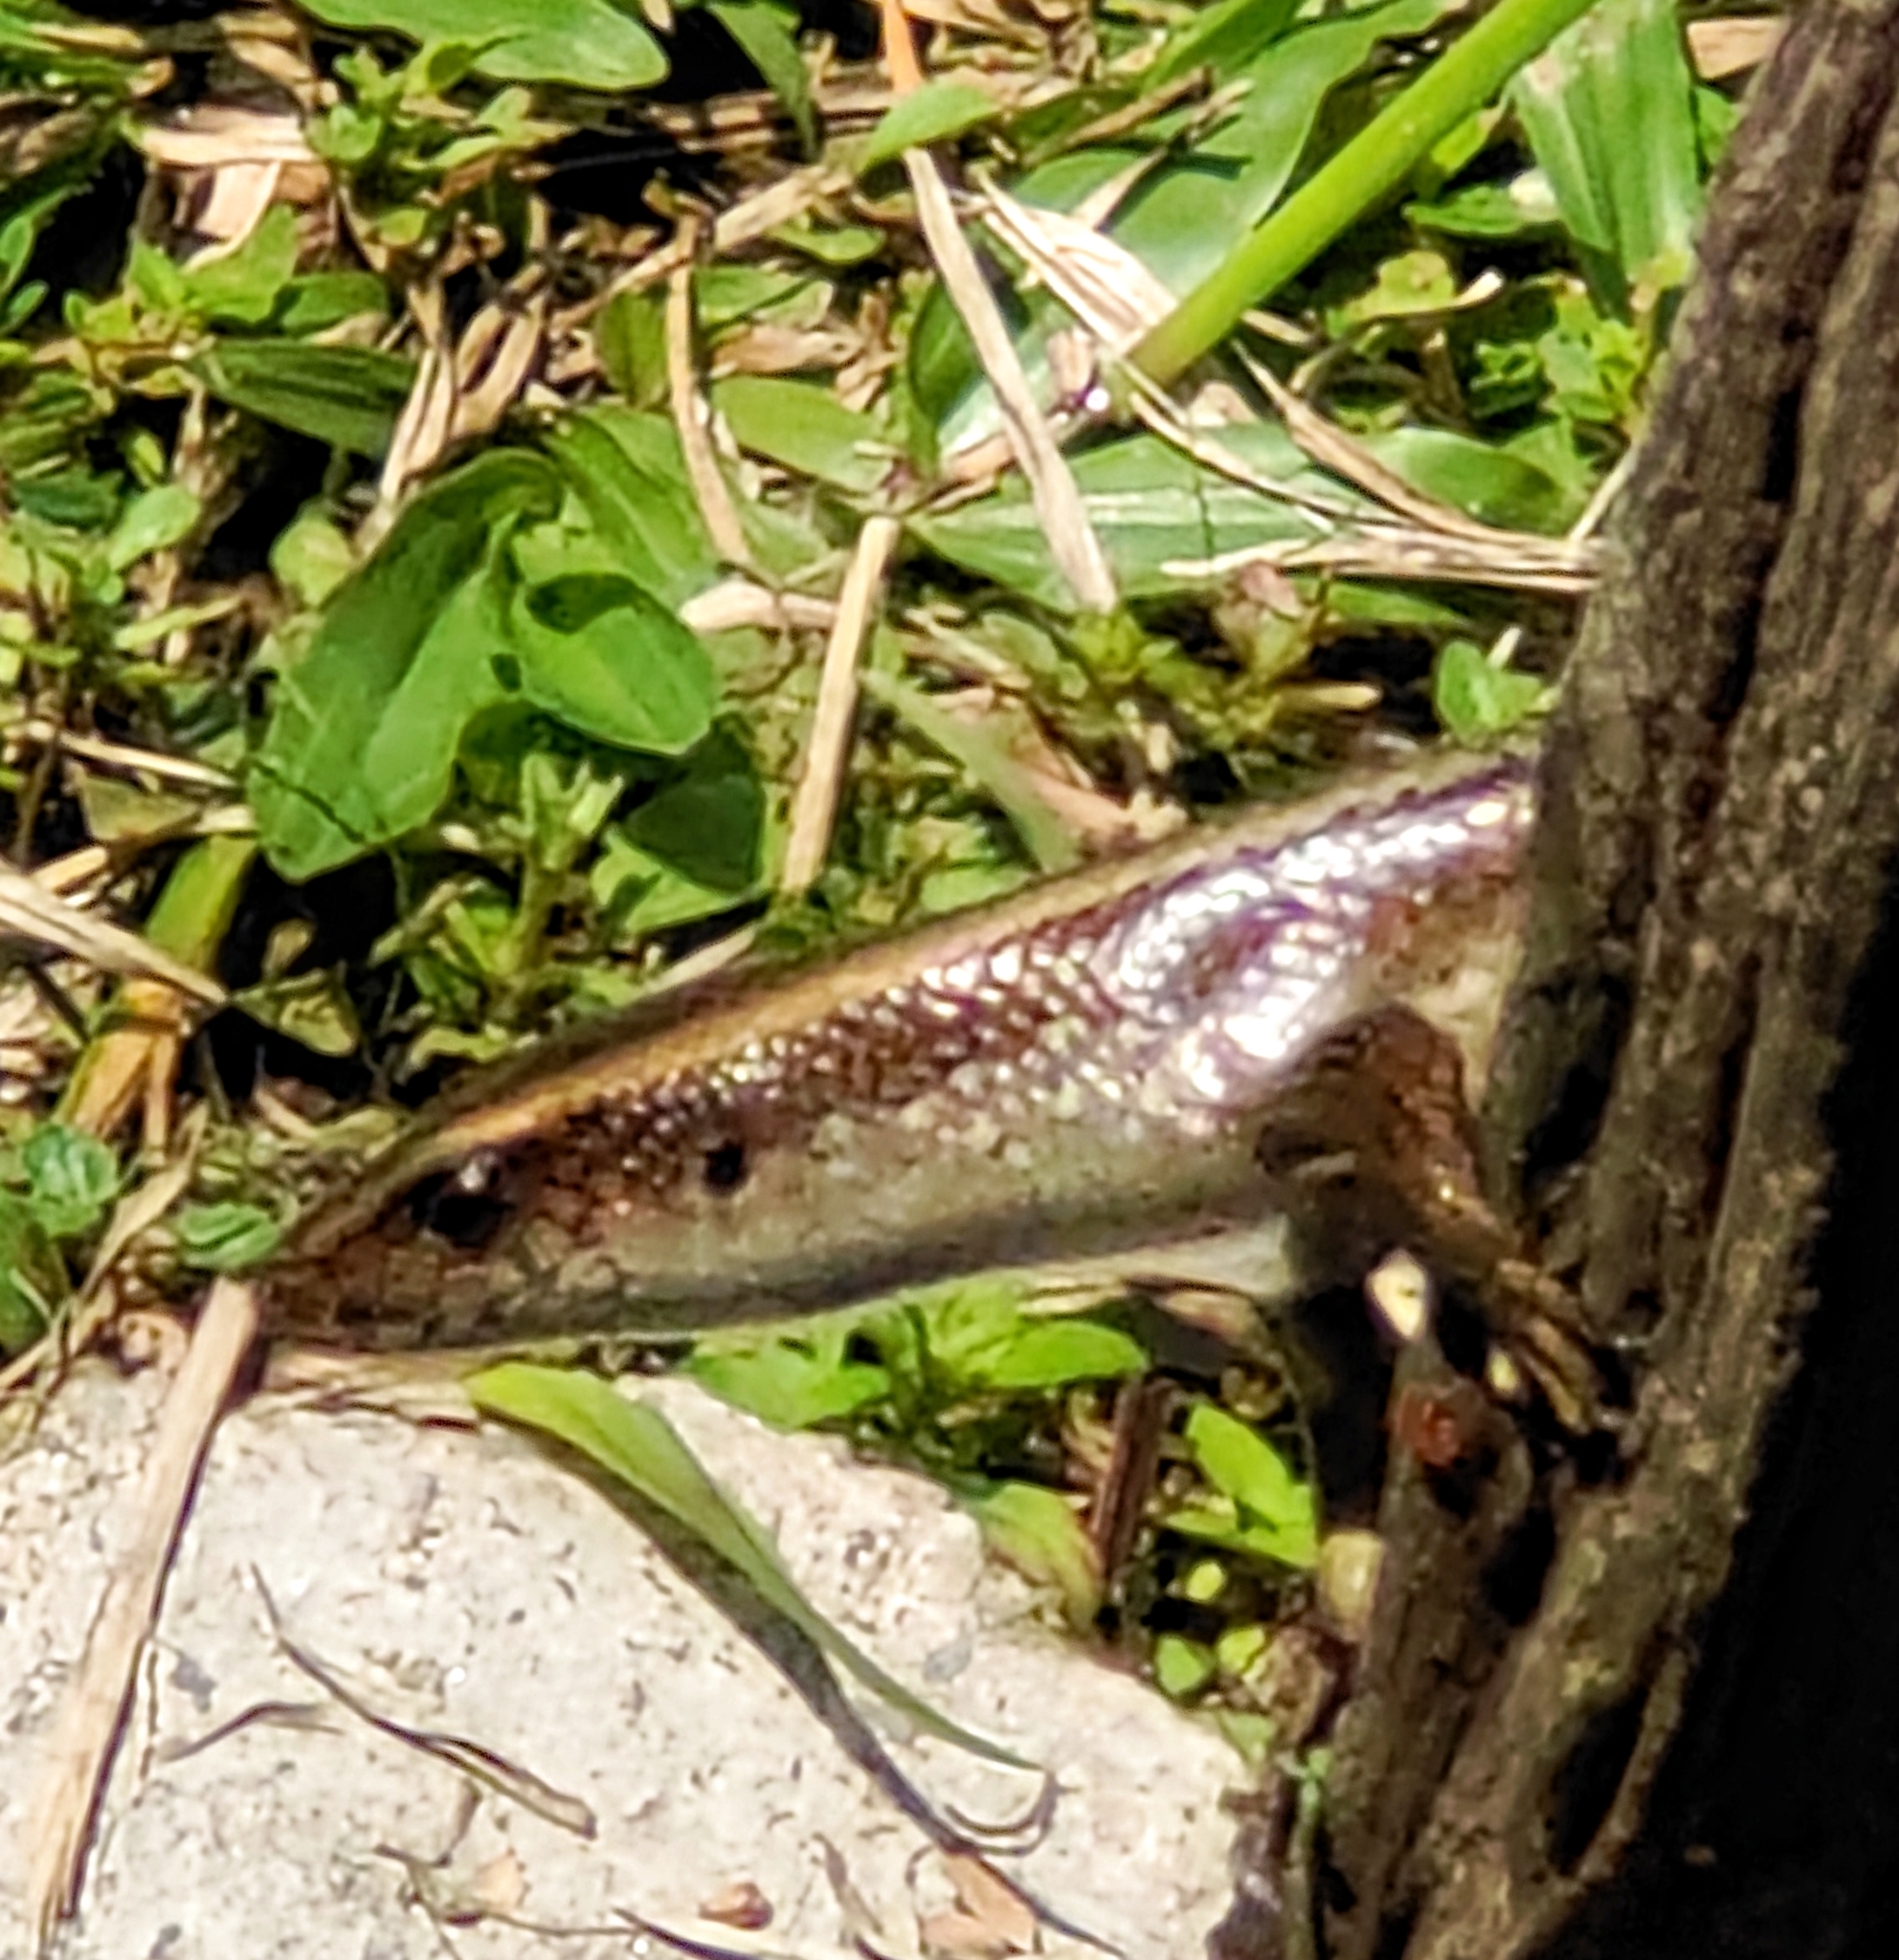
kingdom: Animalia
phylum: Chordata
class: Squamata
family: Scincidae
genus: Eutropis
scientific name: Eutropis multifasciata
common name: Common mabuya
